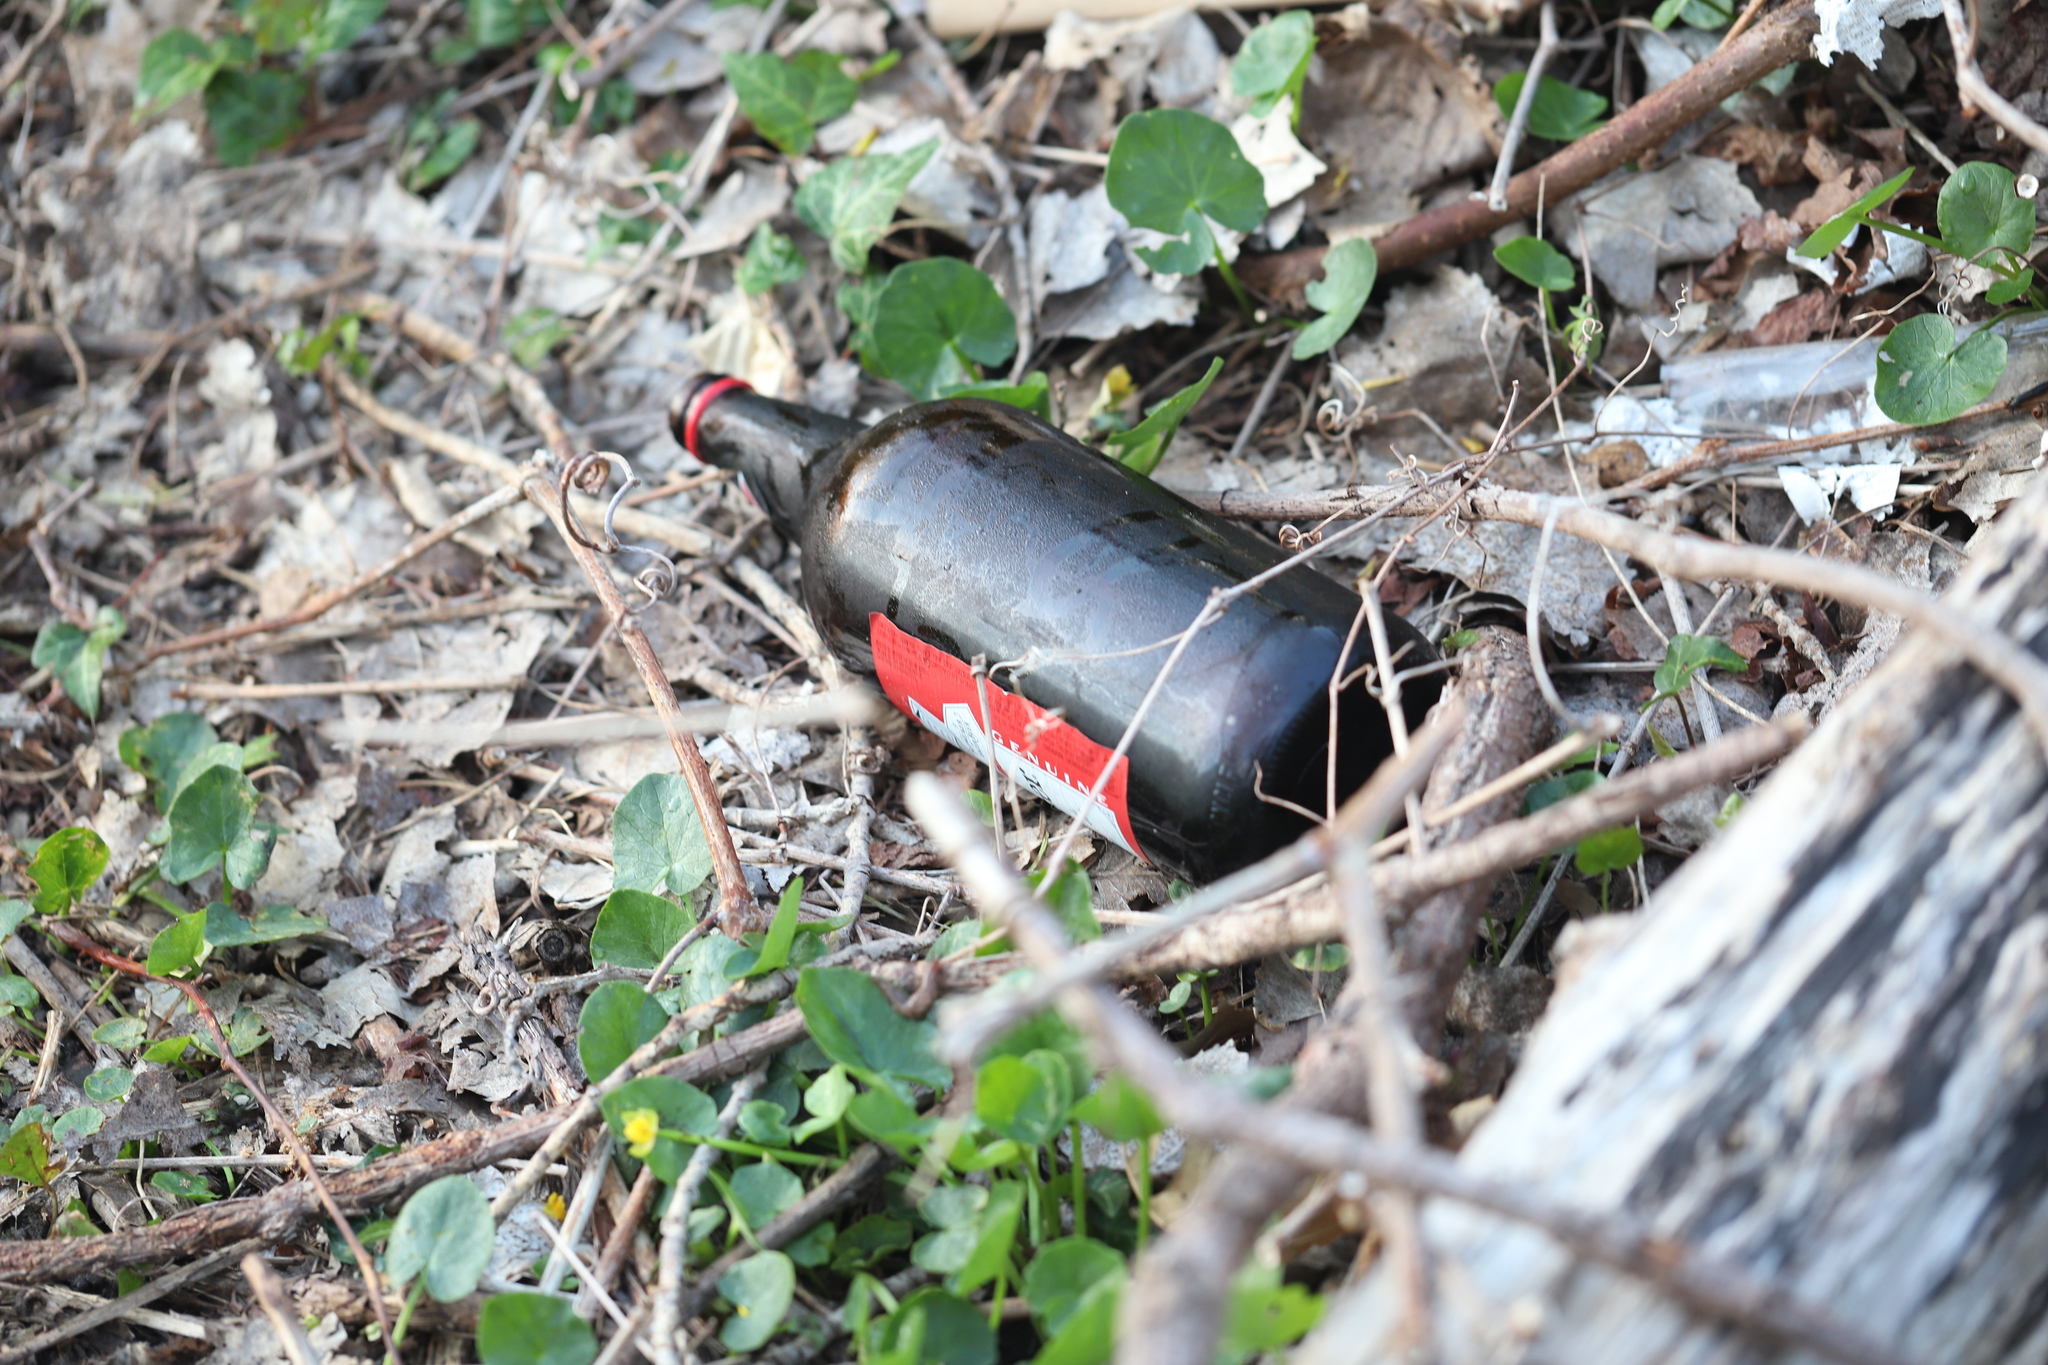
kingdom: Plantae
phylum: Tracheophyta
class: Magnoliopsida
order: Ranunculales
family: Ranunculaceae
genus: Ficaria
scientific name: Ficaria verna
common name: Lesser celandine
